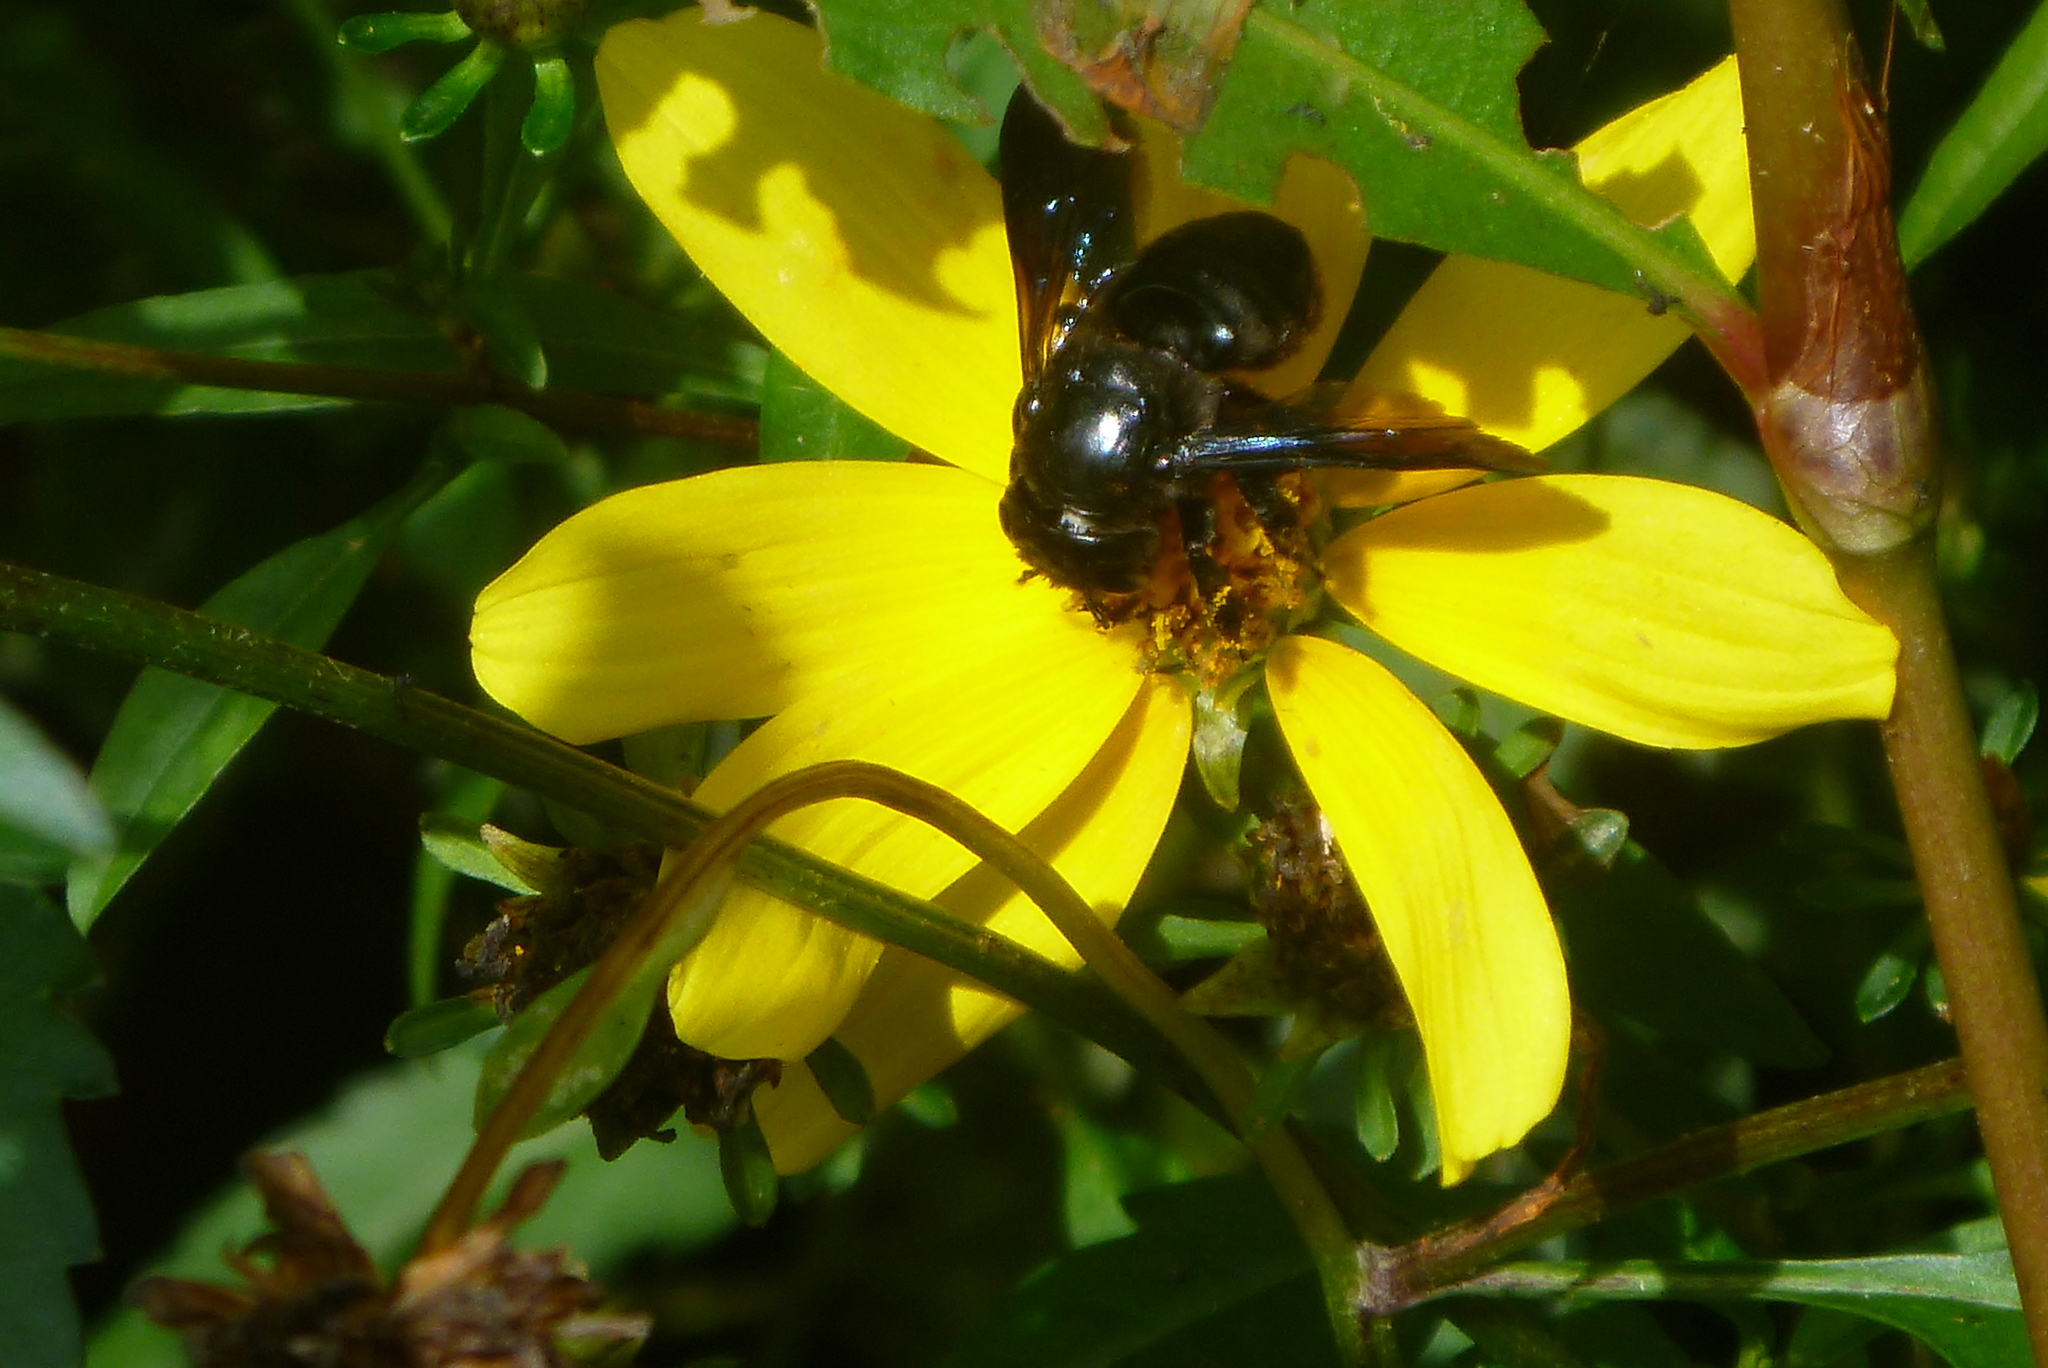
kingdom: Animalia
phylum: Arthropoda
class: Insecta
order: Hymenoptera
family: Megachilidae
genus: Megachile
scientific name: Megachile xylocopoides
